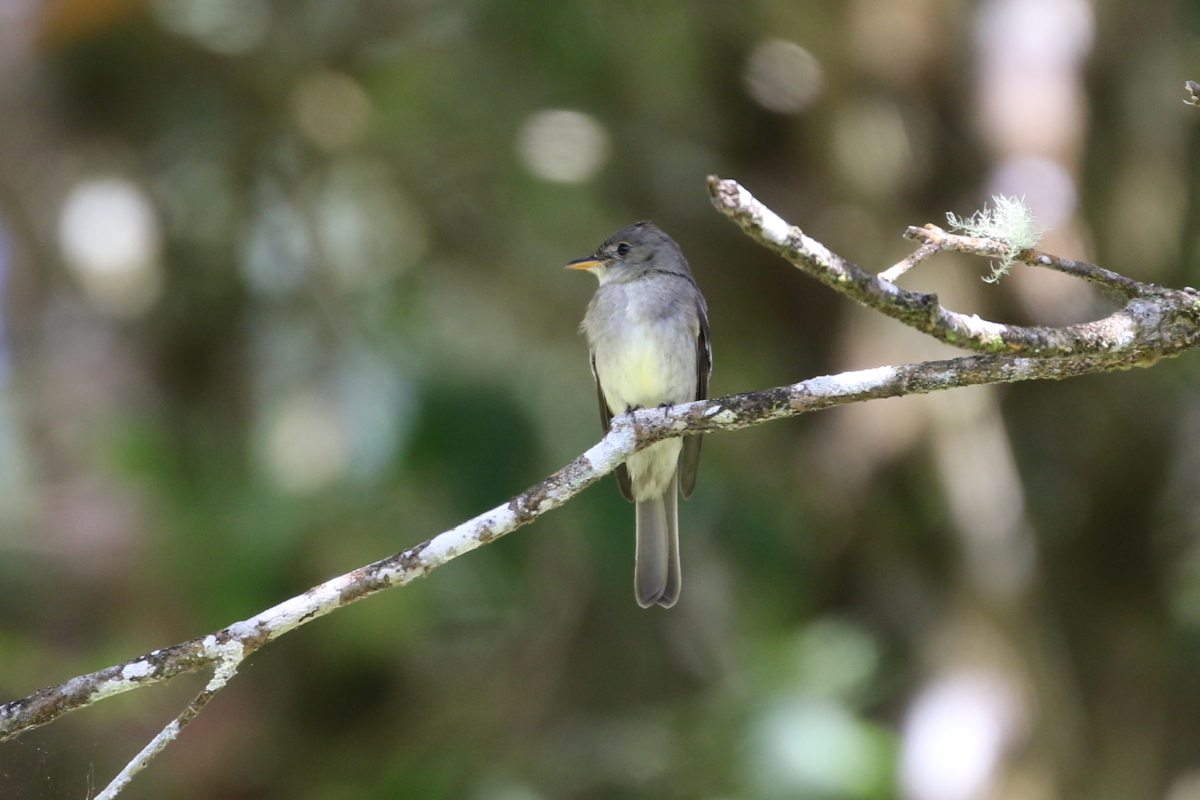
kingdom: Animalia
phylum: Chordata
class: Aves
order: Passeriformes
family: Tyrannidae
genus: Contopus
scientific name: Contopus cinereus
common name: Tropical pewee
